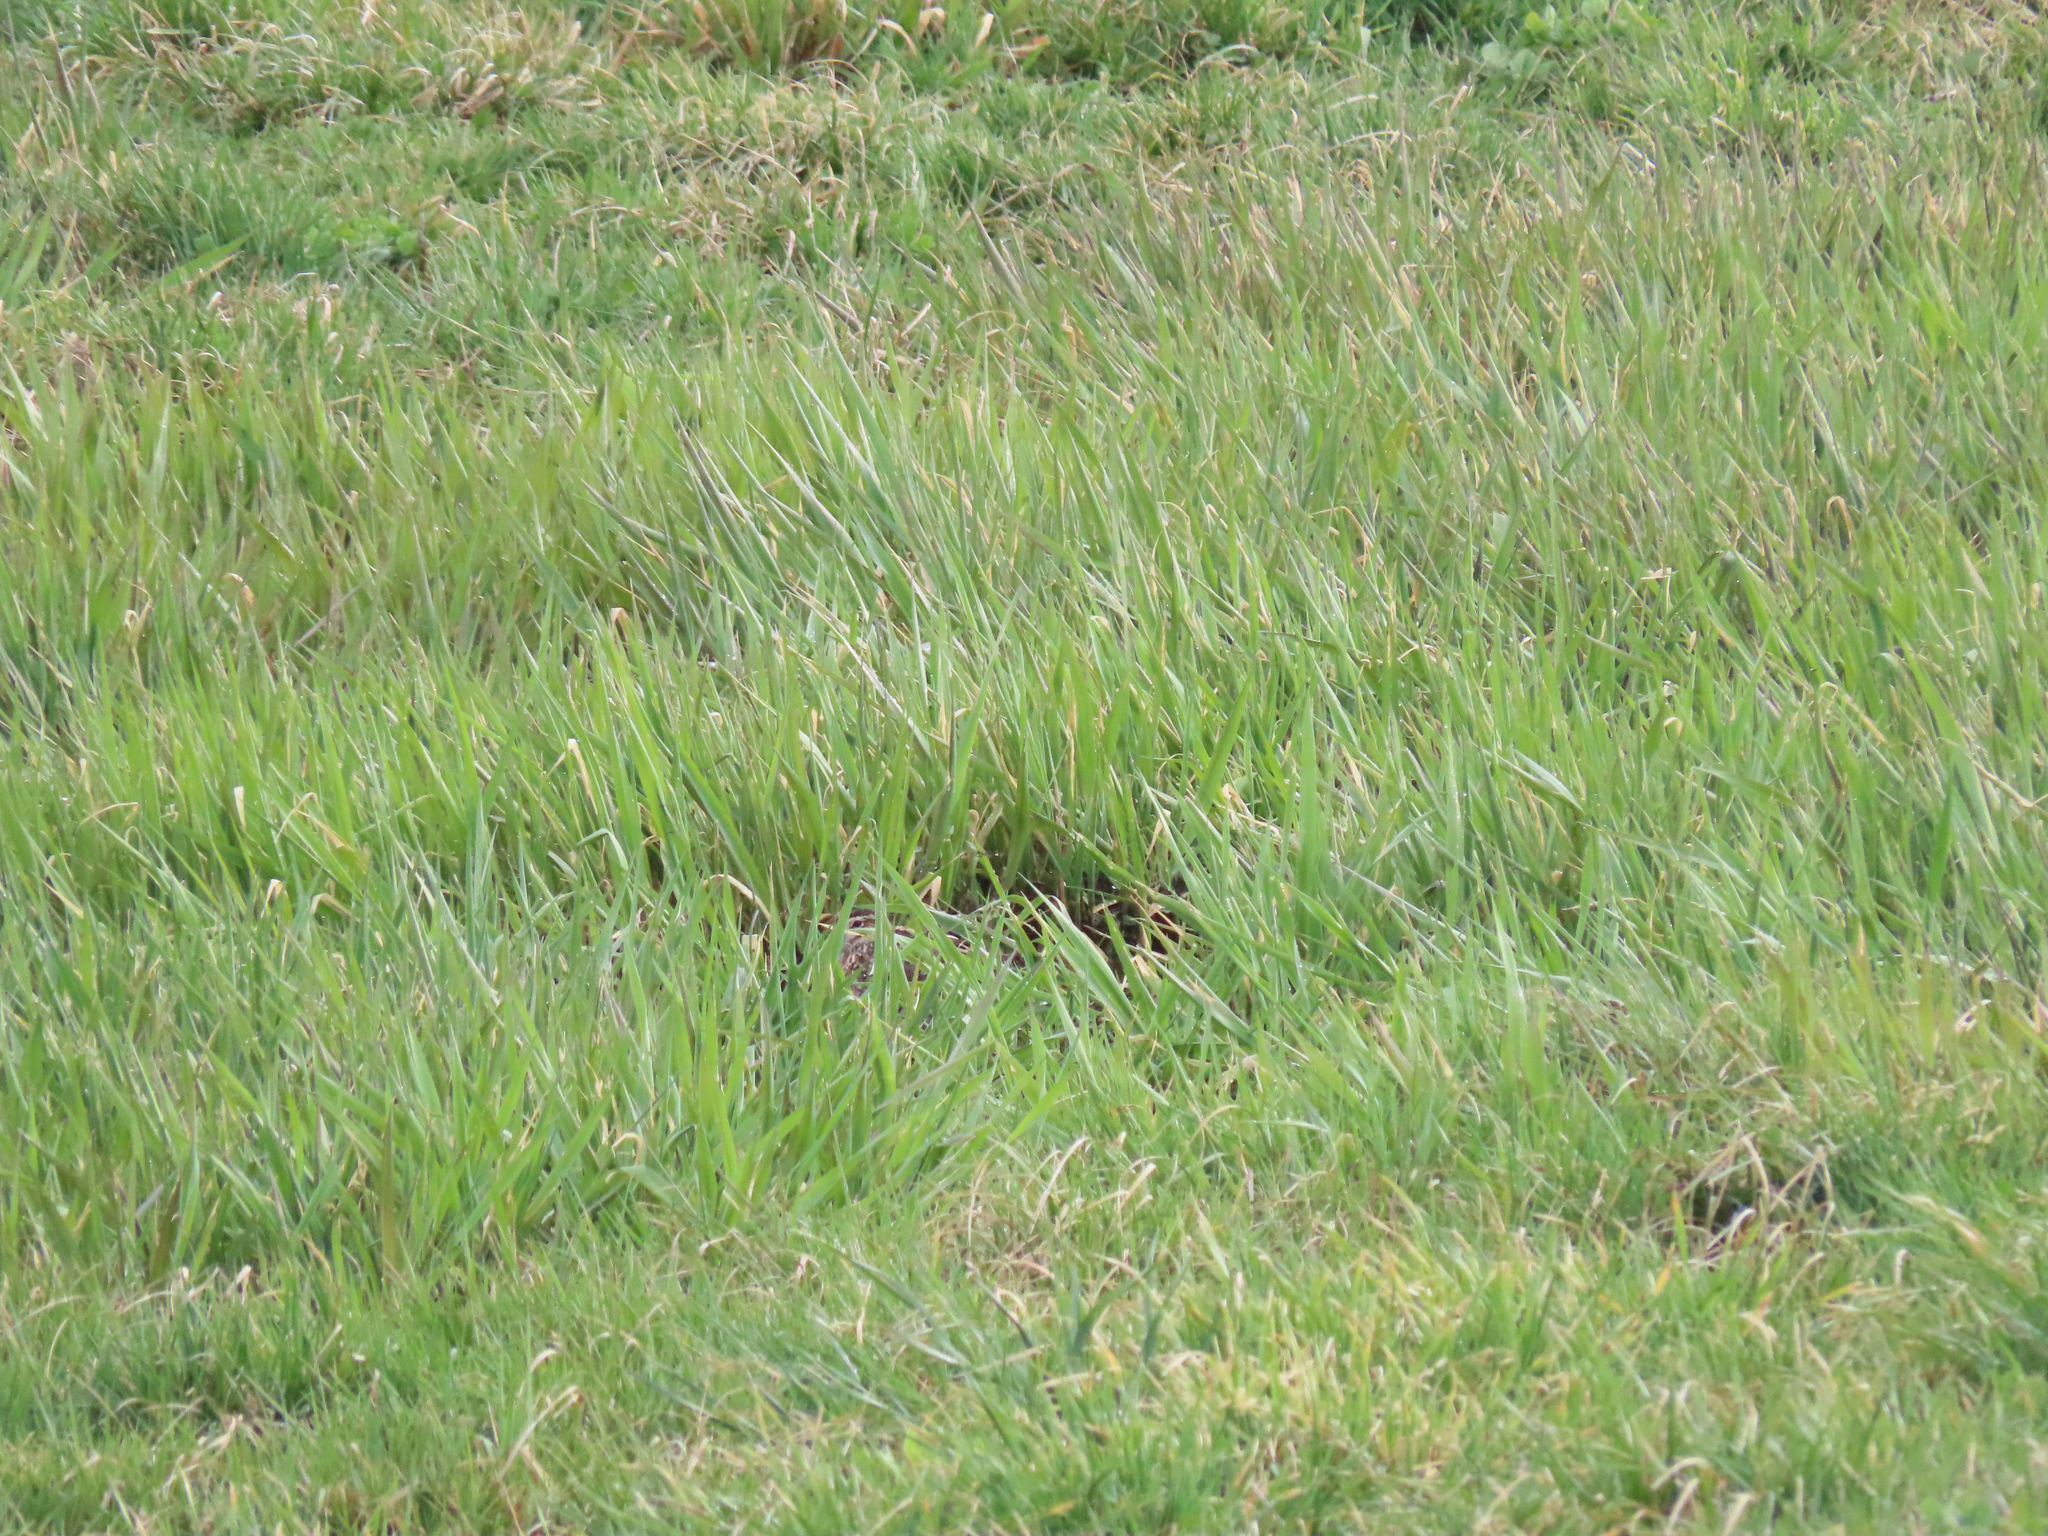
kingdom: Animalia
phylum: Chordata
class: Aves
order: Charadriiformes
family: Scolopacidae
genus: Gallinago
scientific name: Gallinago delicata
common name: Wilson's snipe
